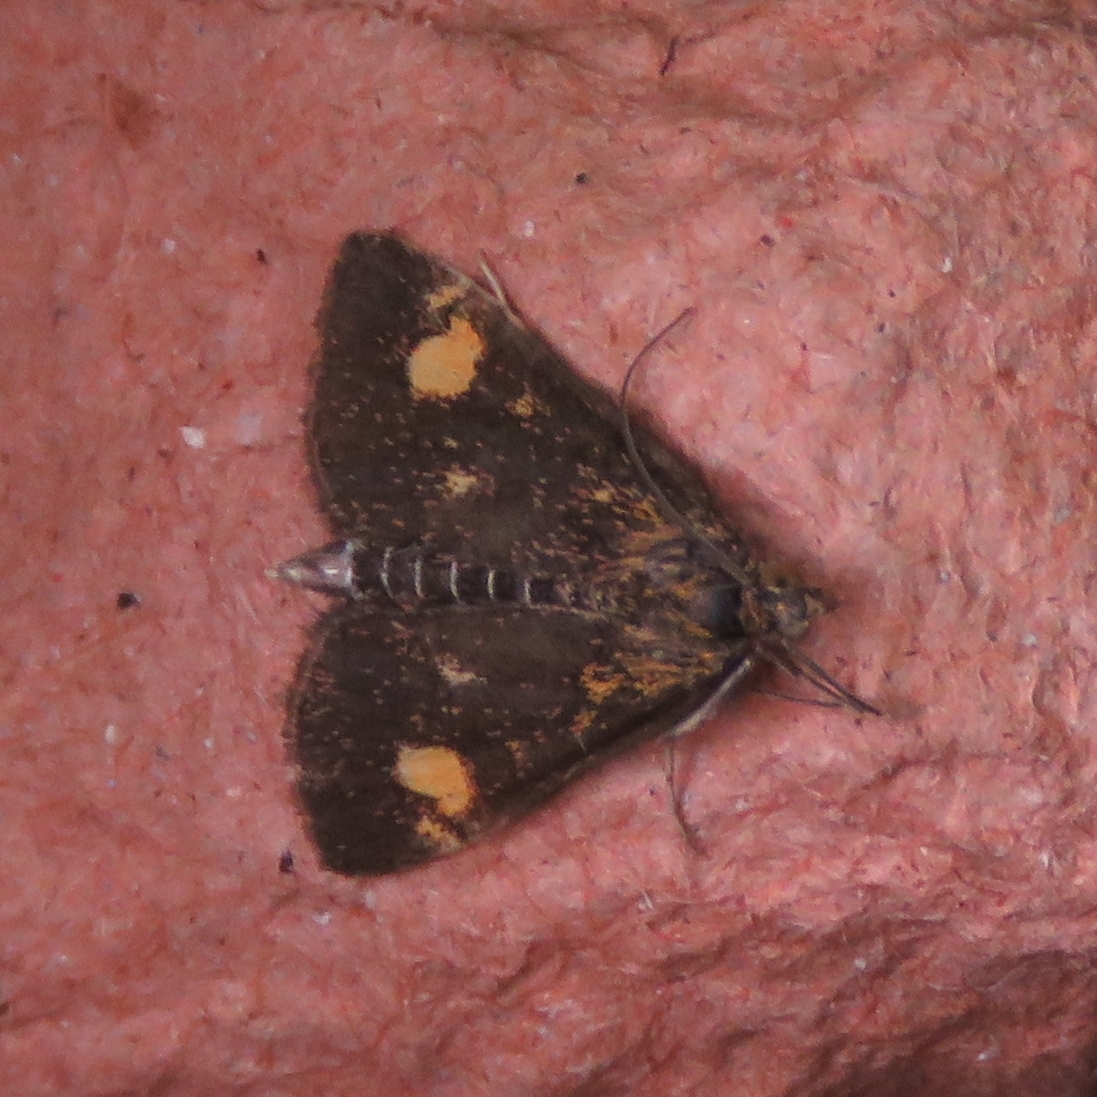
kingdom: Animalia
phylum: Arthropoda
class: Insecta
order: Lepidoptera
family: Crambidae
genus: Pyrausta
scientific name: Pyrausta aurata
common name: Small purple & gold
